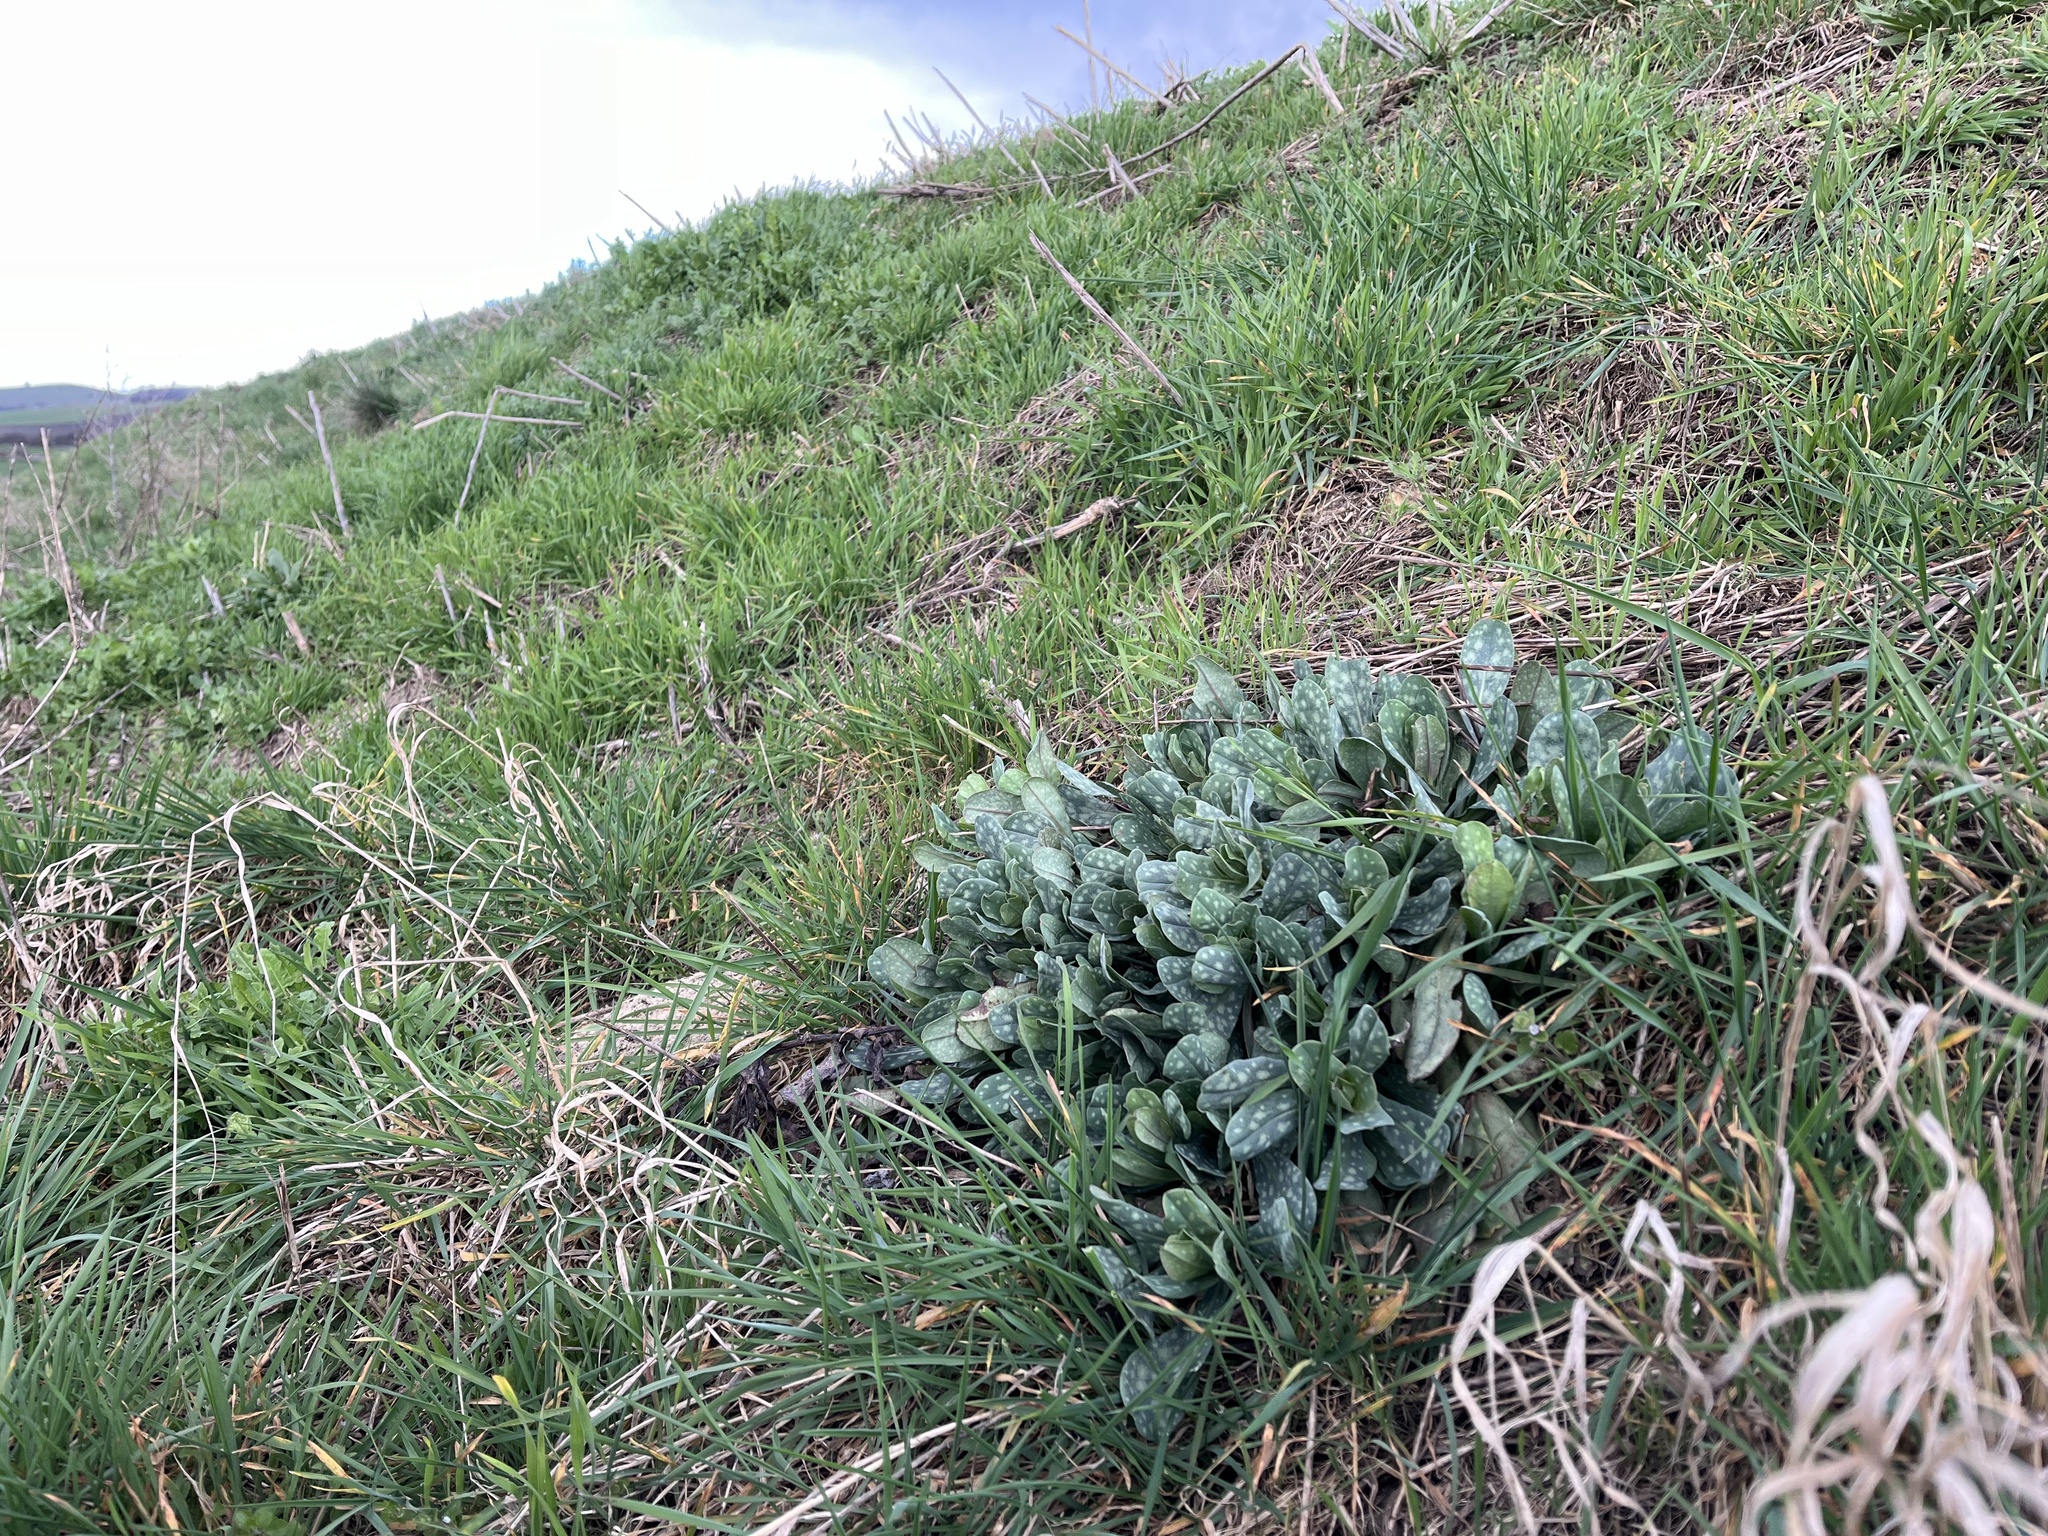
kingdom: Plantae
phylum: Tracheophyta
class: Magnoliopsida
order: Boraginales
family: Boraginaceae
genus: Cerinthe
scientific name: Cerinthe minor
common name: Lesser honeywort
